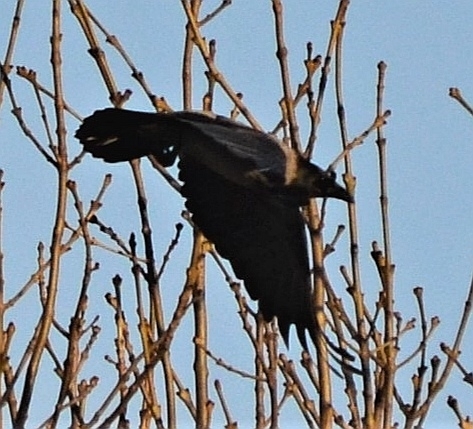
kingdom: Animalia
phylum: Chordata
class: Aves
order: Passeriformes
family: Corvidae
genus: Corvus
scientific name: Corvus cornix
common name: Hooded crow
